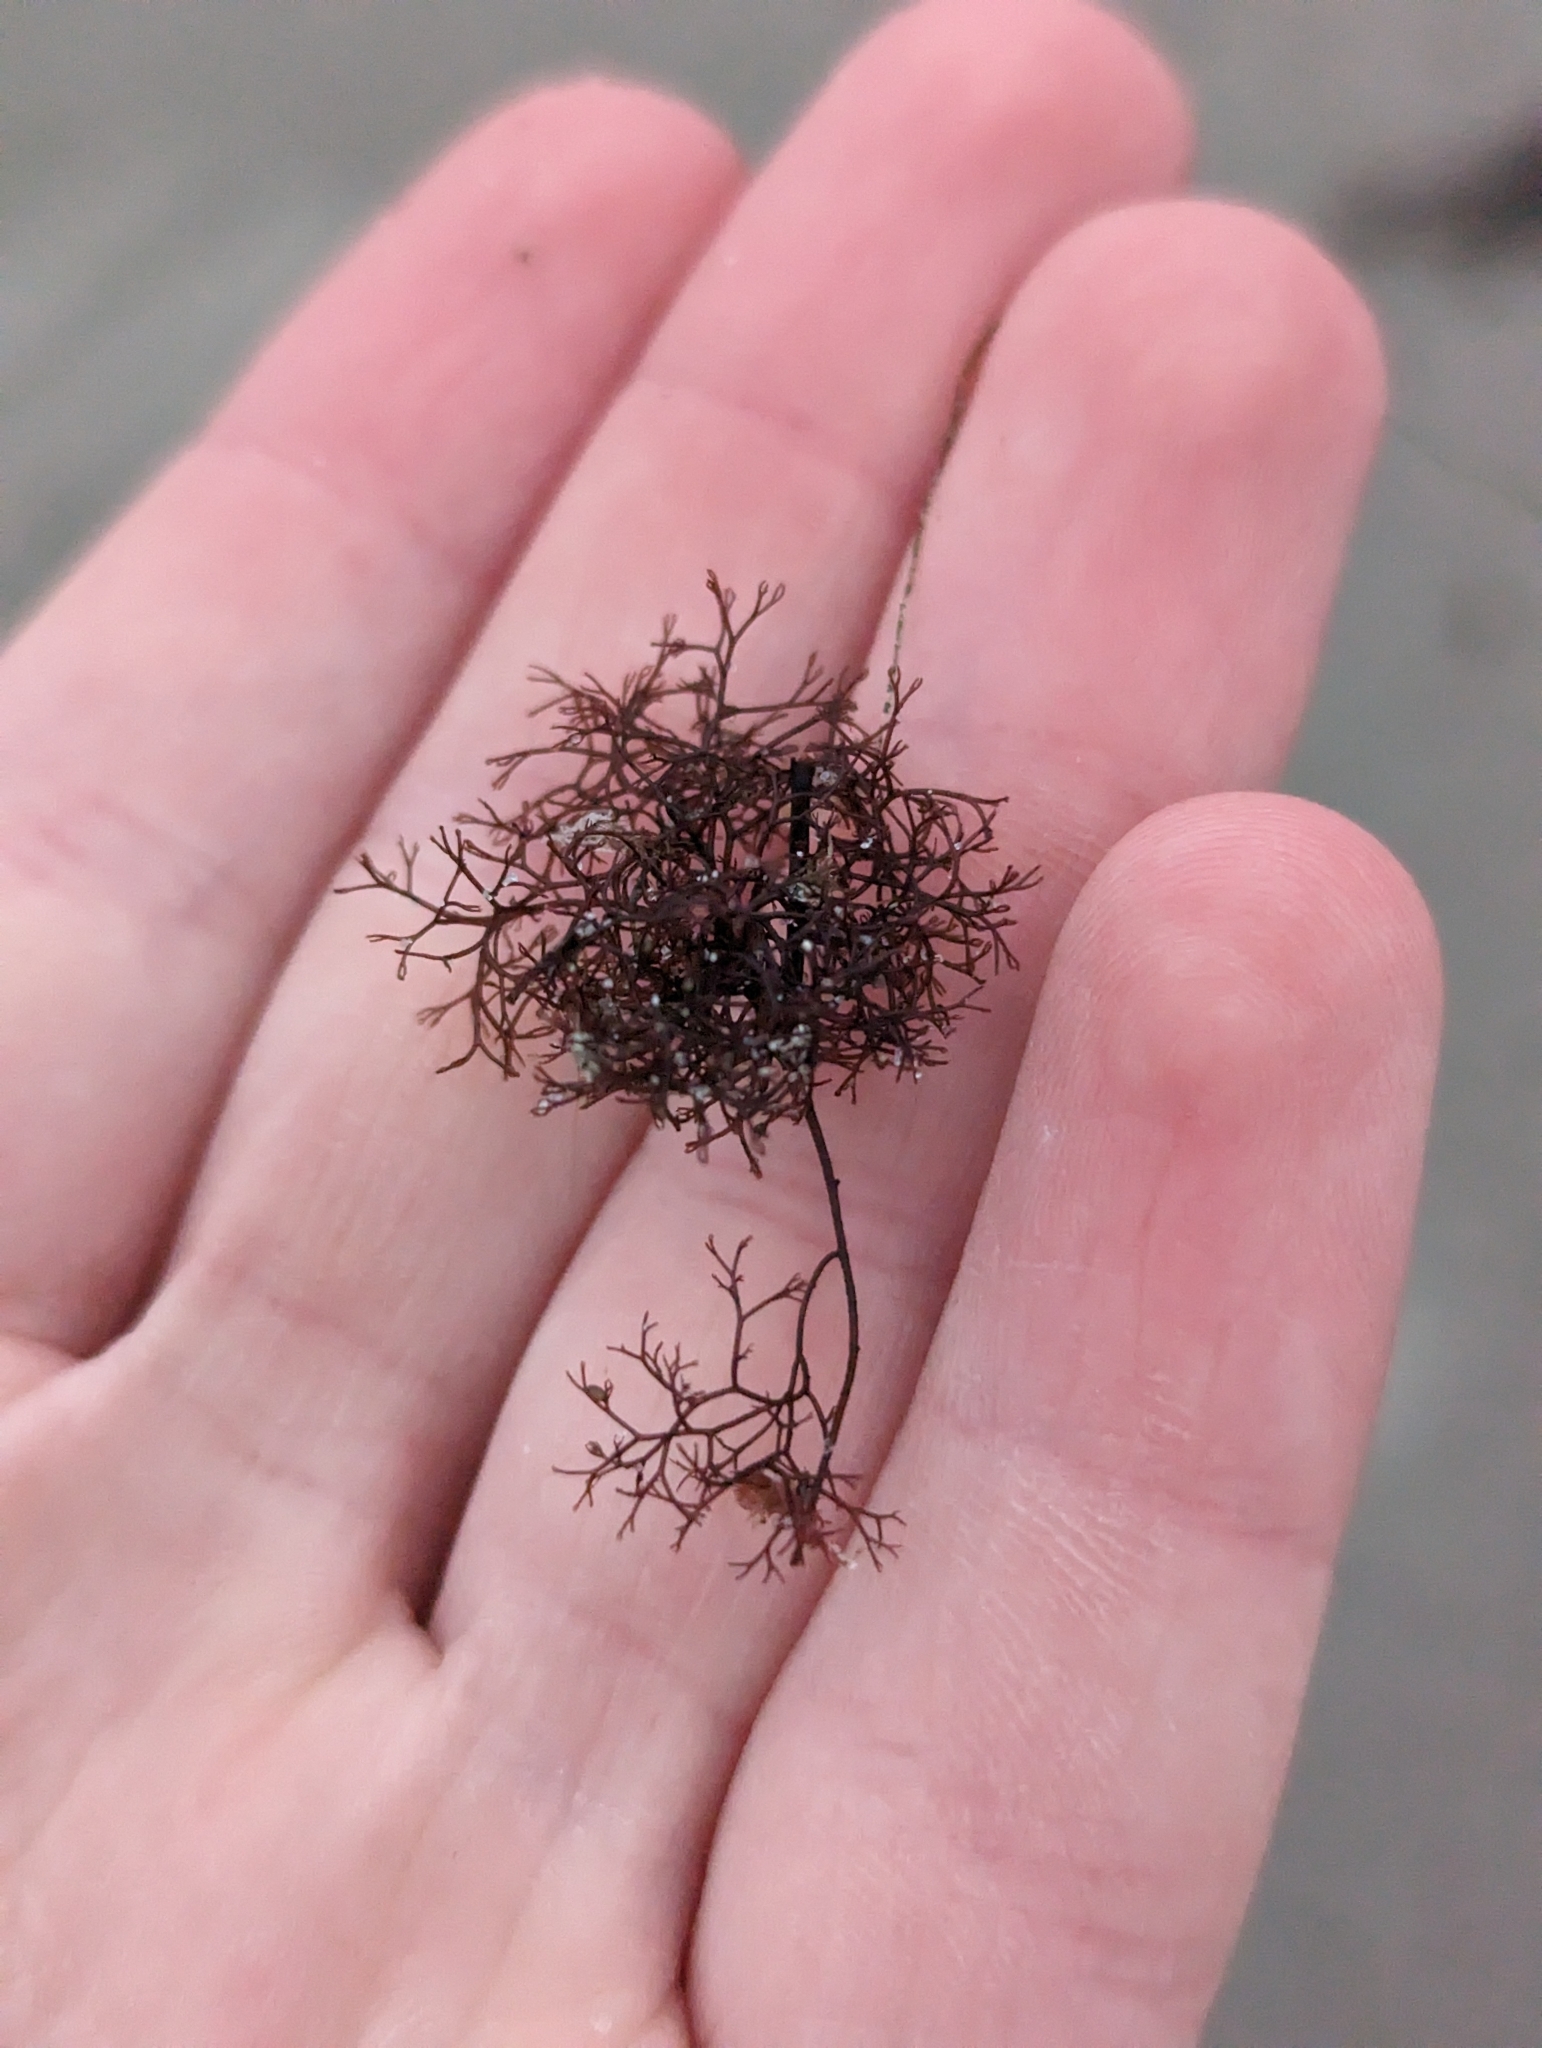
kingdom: Plantae
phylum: Rhodophyta
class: Florideophyceae
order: Ceramiales
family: Rhodomelaceae
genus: Vertebrata
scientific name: Vertebrata lanosa
